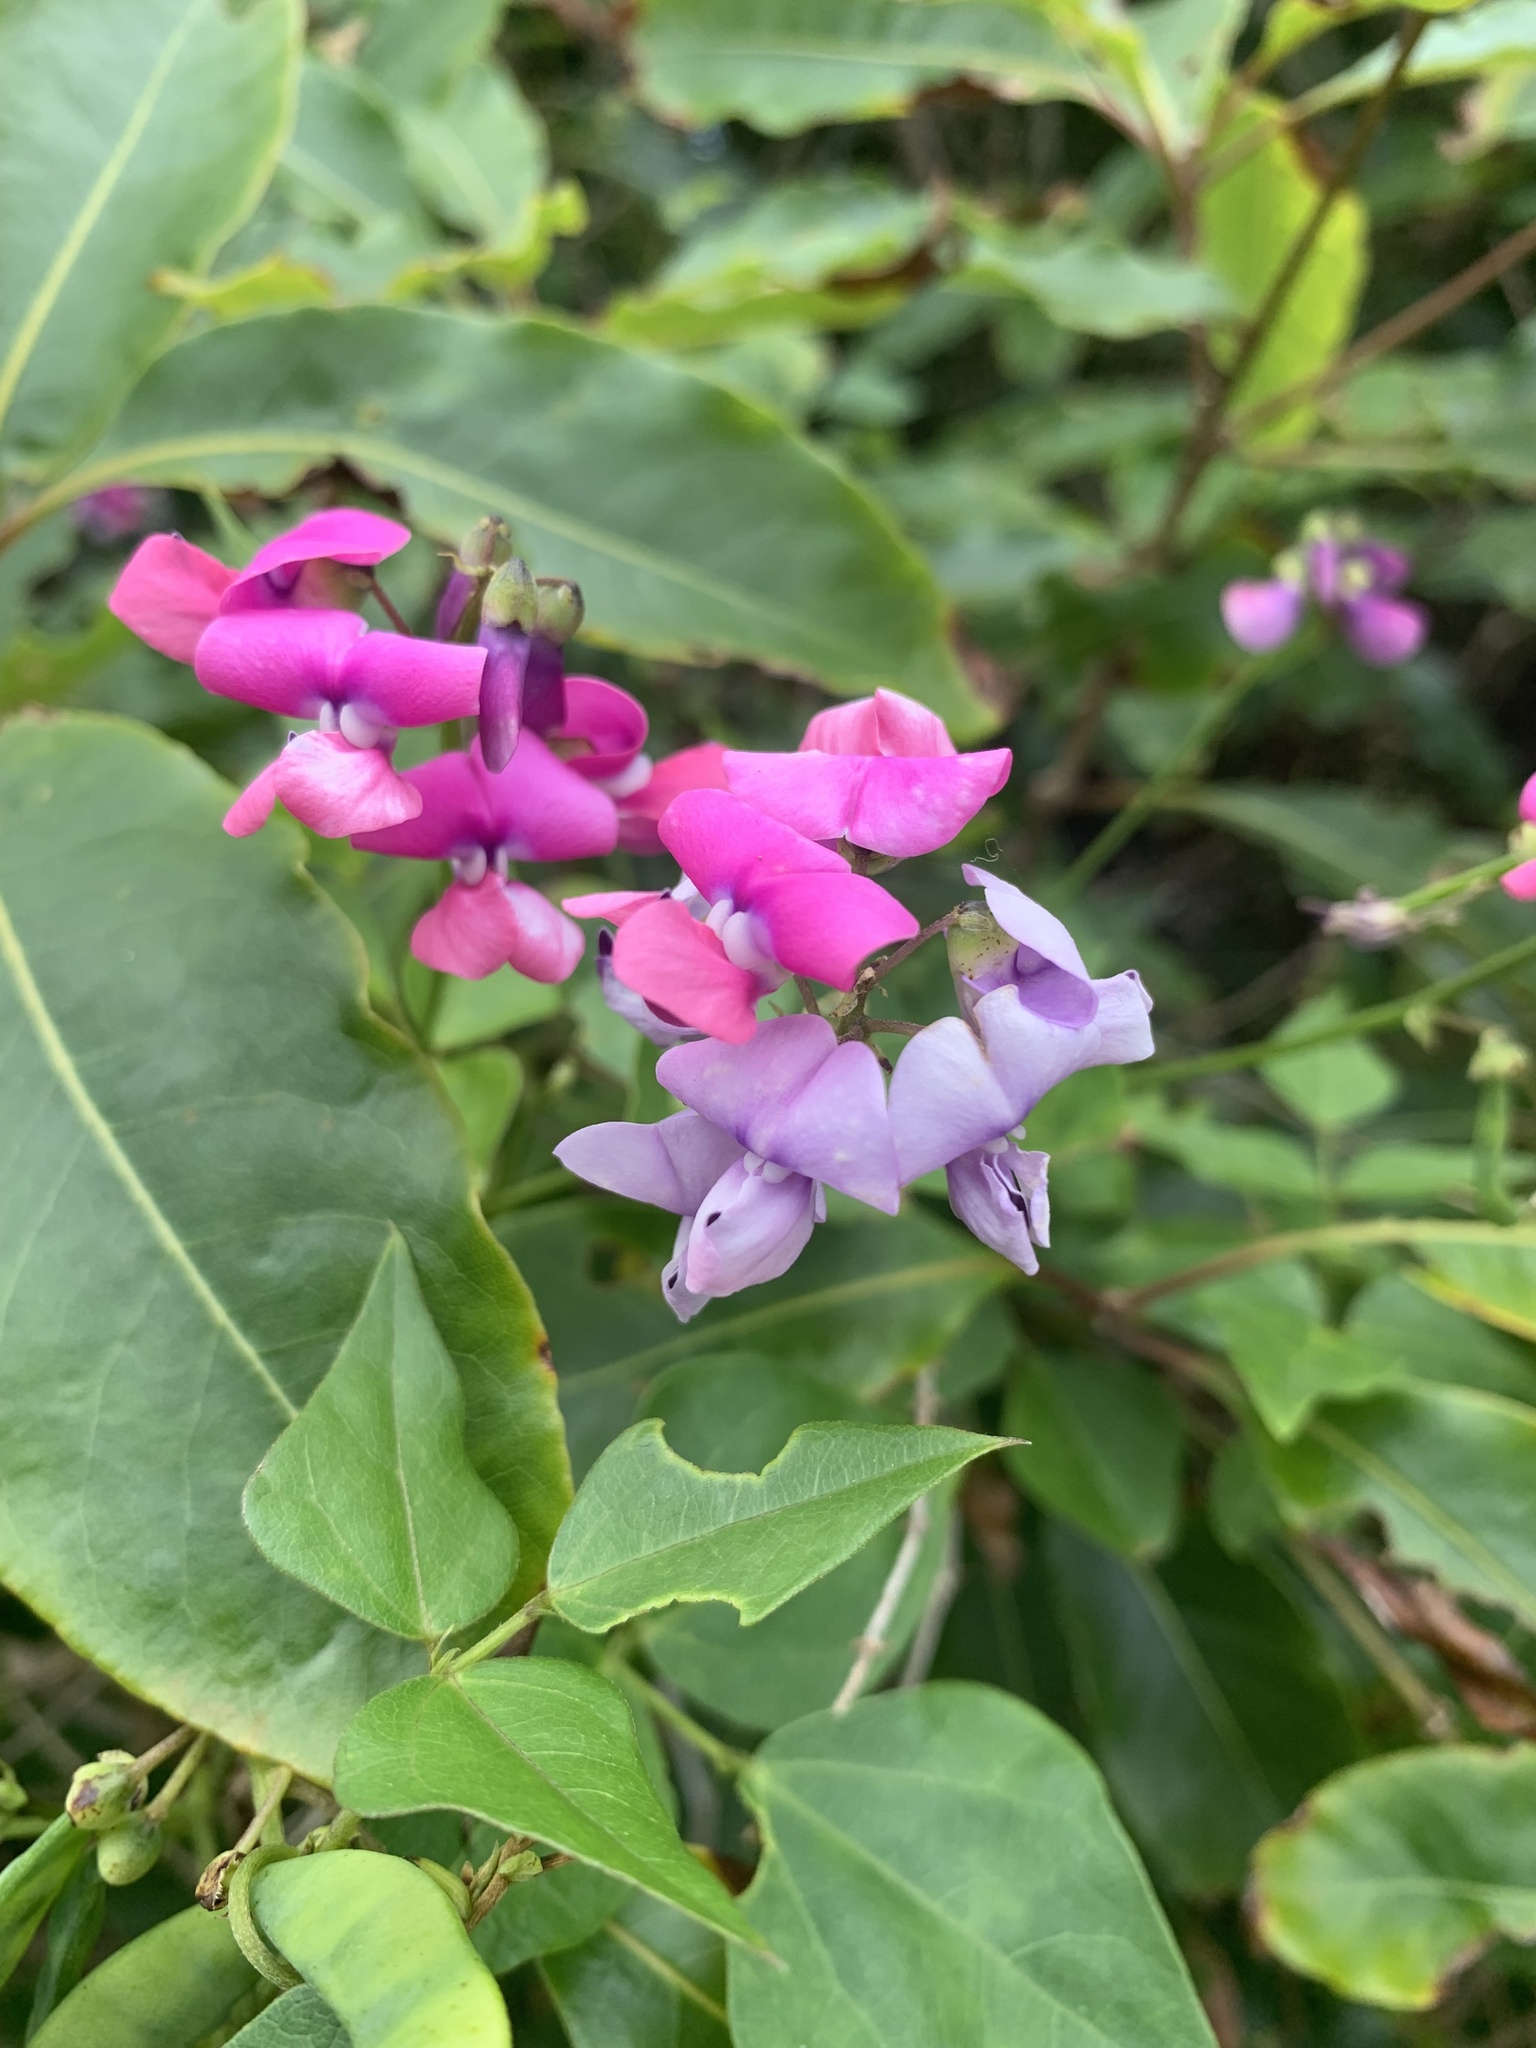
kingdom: Plantae
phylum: Tracheophyta
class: Magnoliopsida
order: Fabales
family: Fabaceae
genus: Dipogon
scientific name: Dipogon lignosus
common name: Okie bean
